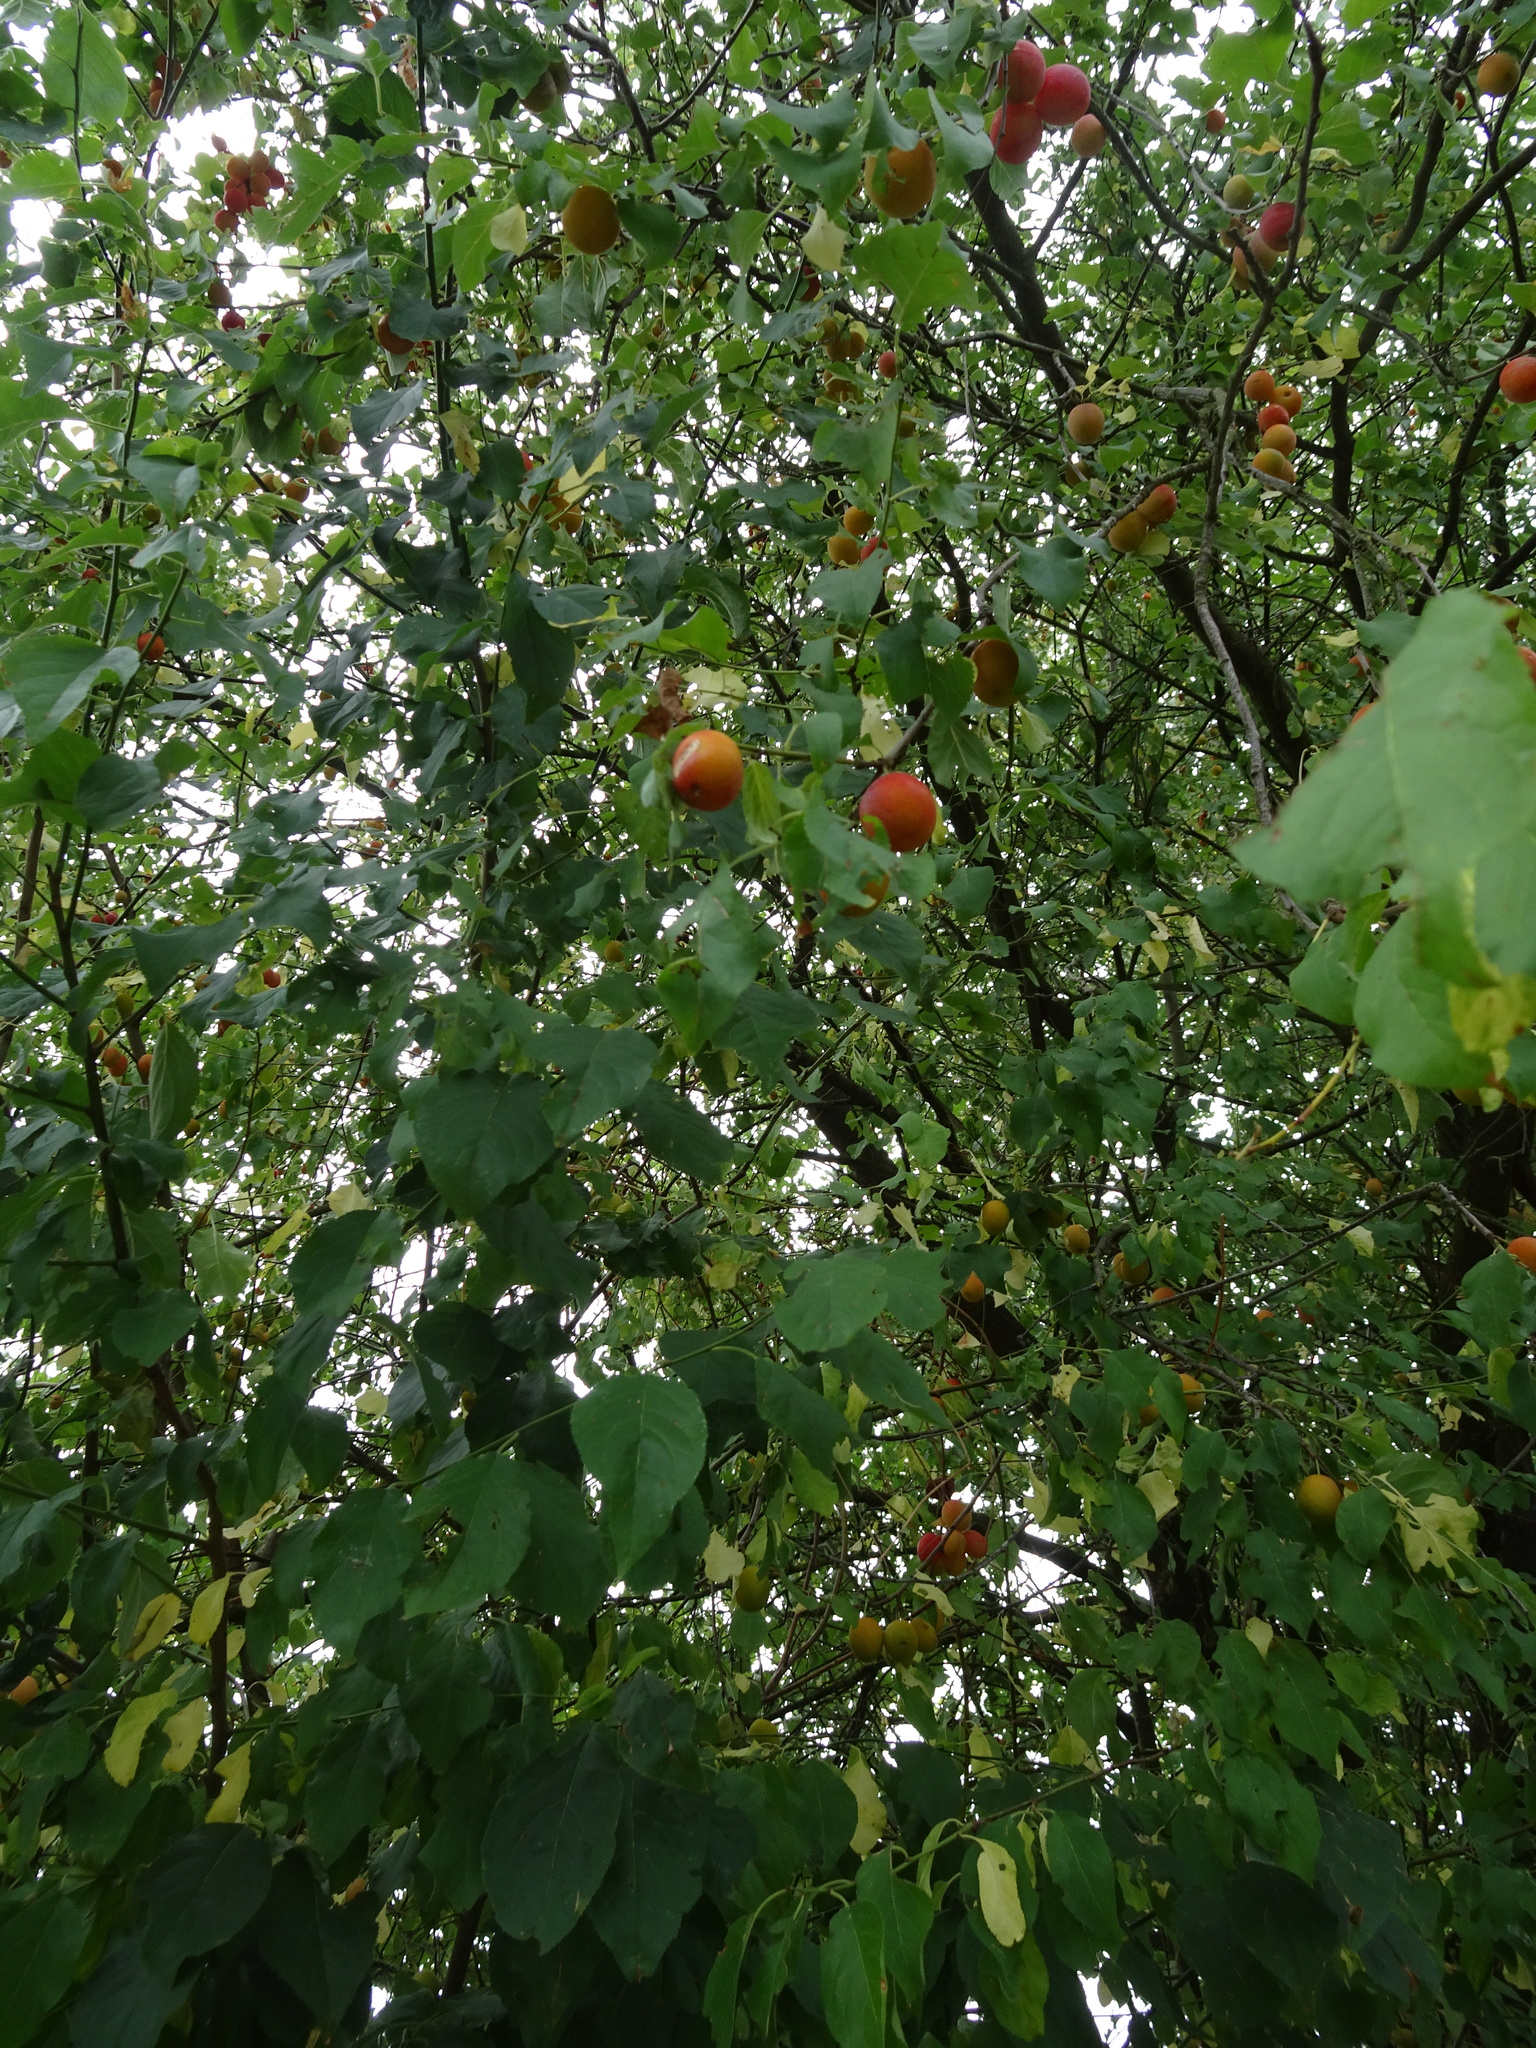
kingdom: Plantae
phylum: Tracheophyta
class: Magnoliopsida
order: Rosales
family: Rosaceae
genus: Prunus
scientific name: Prunus cerasifera
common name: Cherry plum
